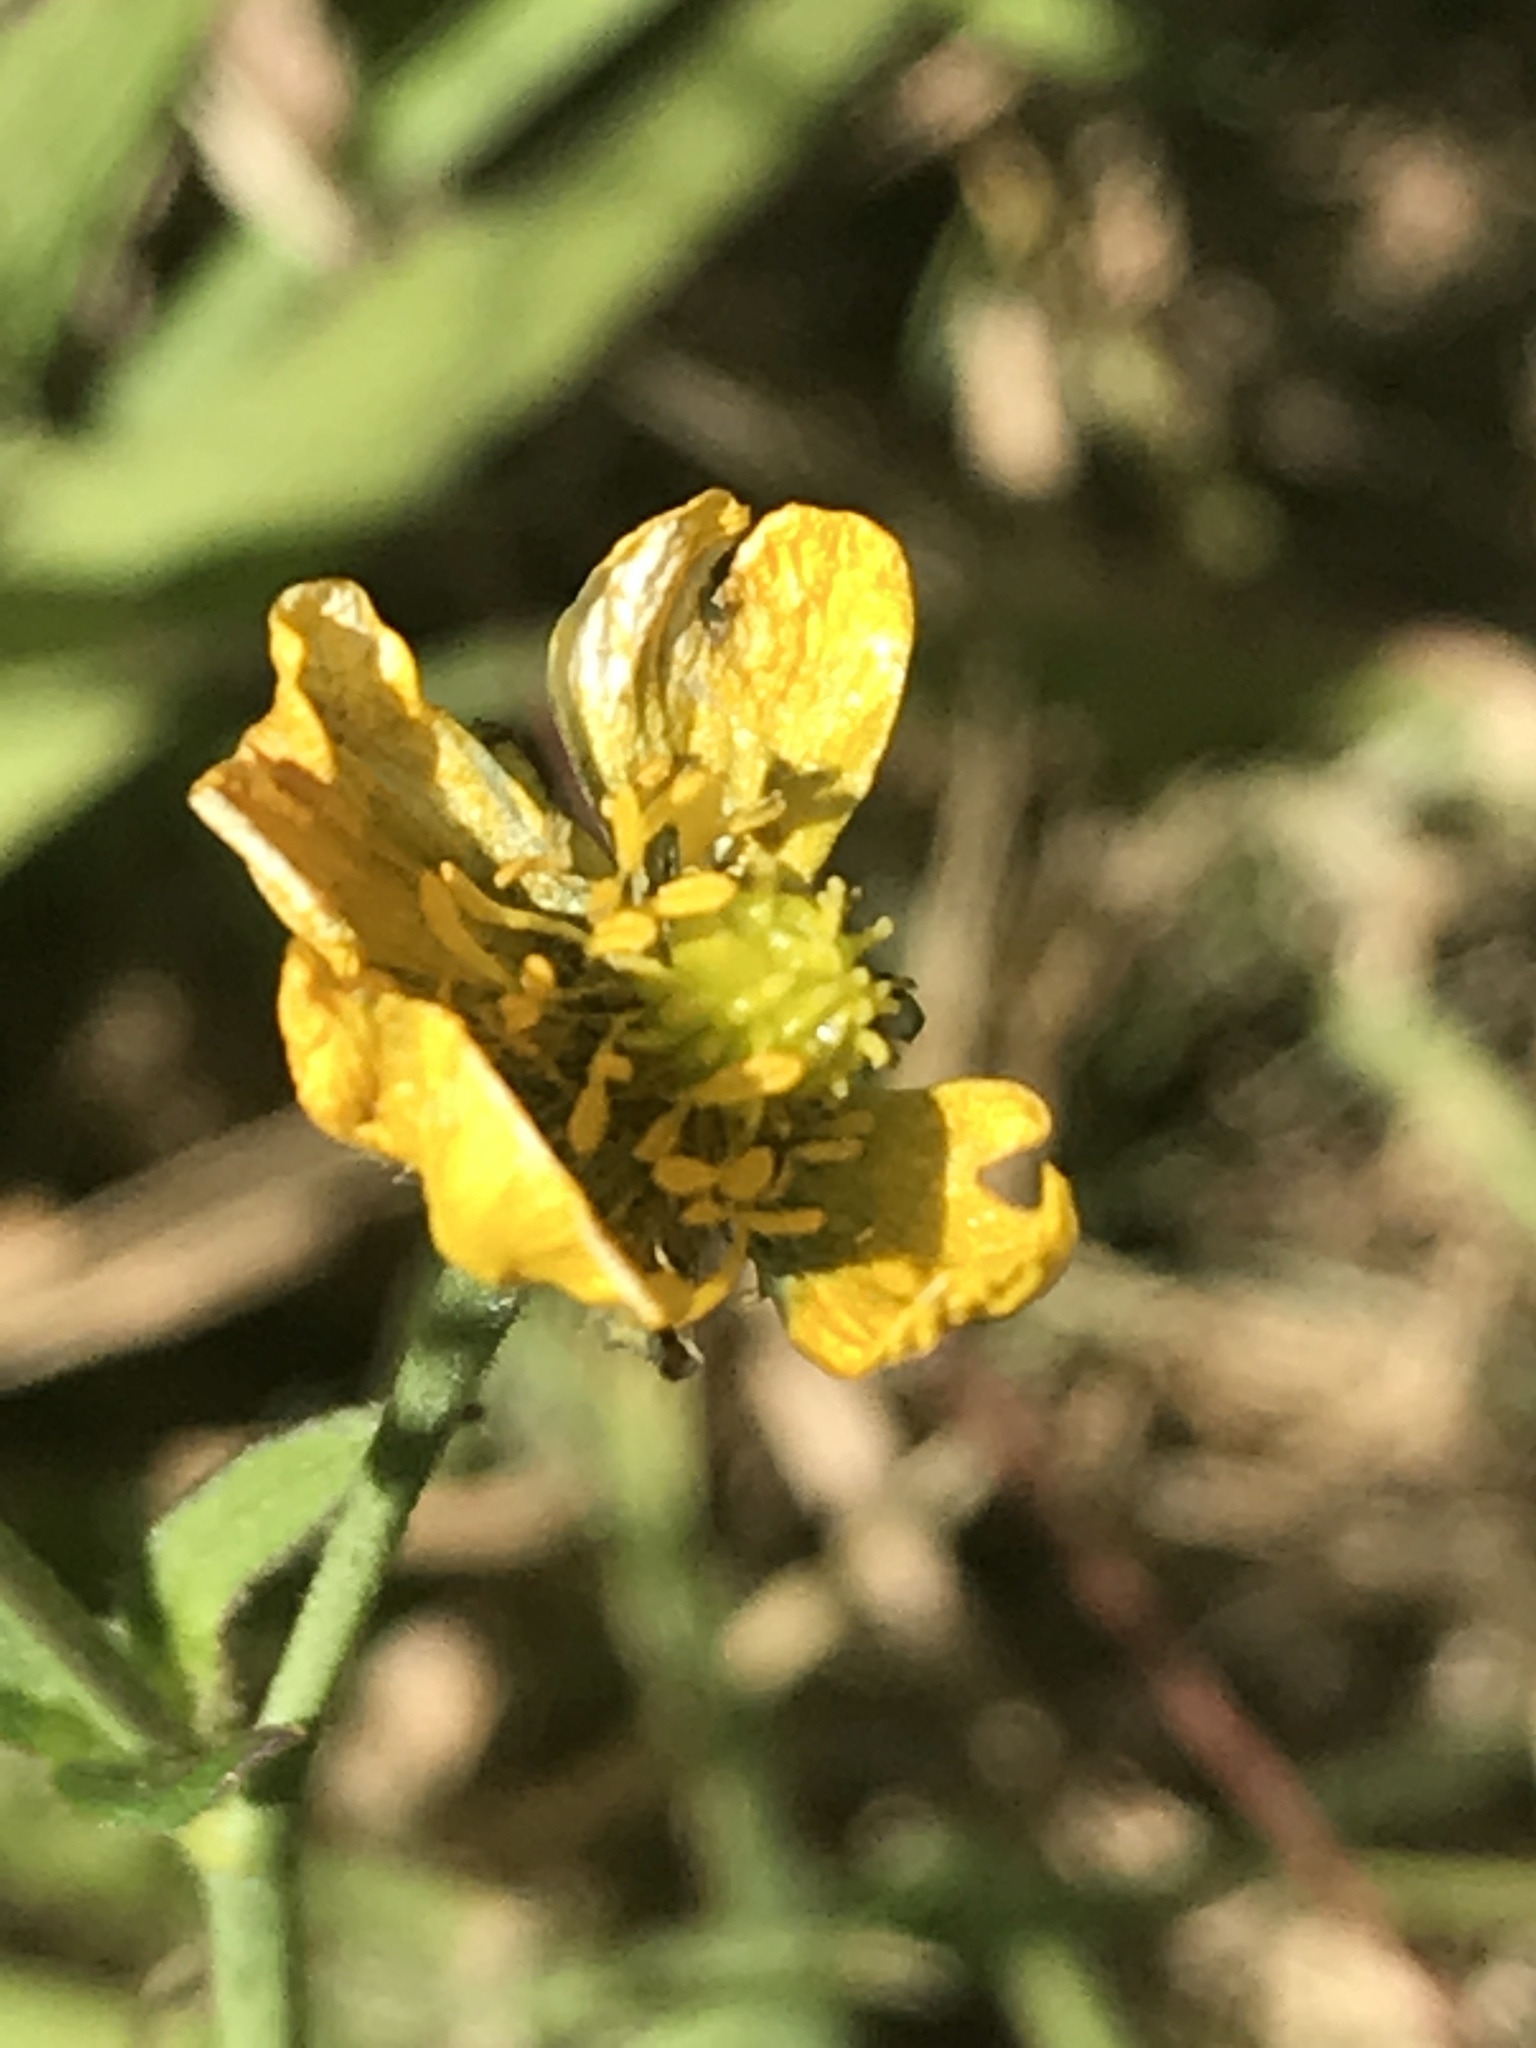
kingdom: Plantae
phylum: Tracheophyta
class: Magnoliopsida
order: Ranunculales
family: Ranunculaceae
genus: Ranunculus
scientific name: Ranunculus repens
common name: Creeping buttercup
